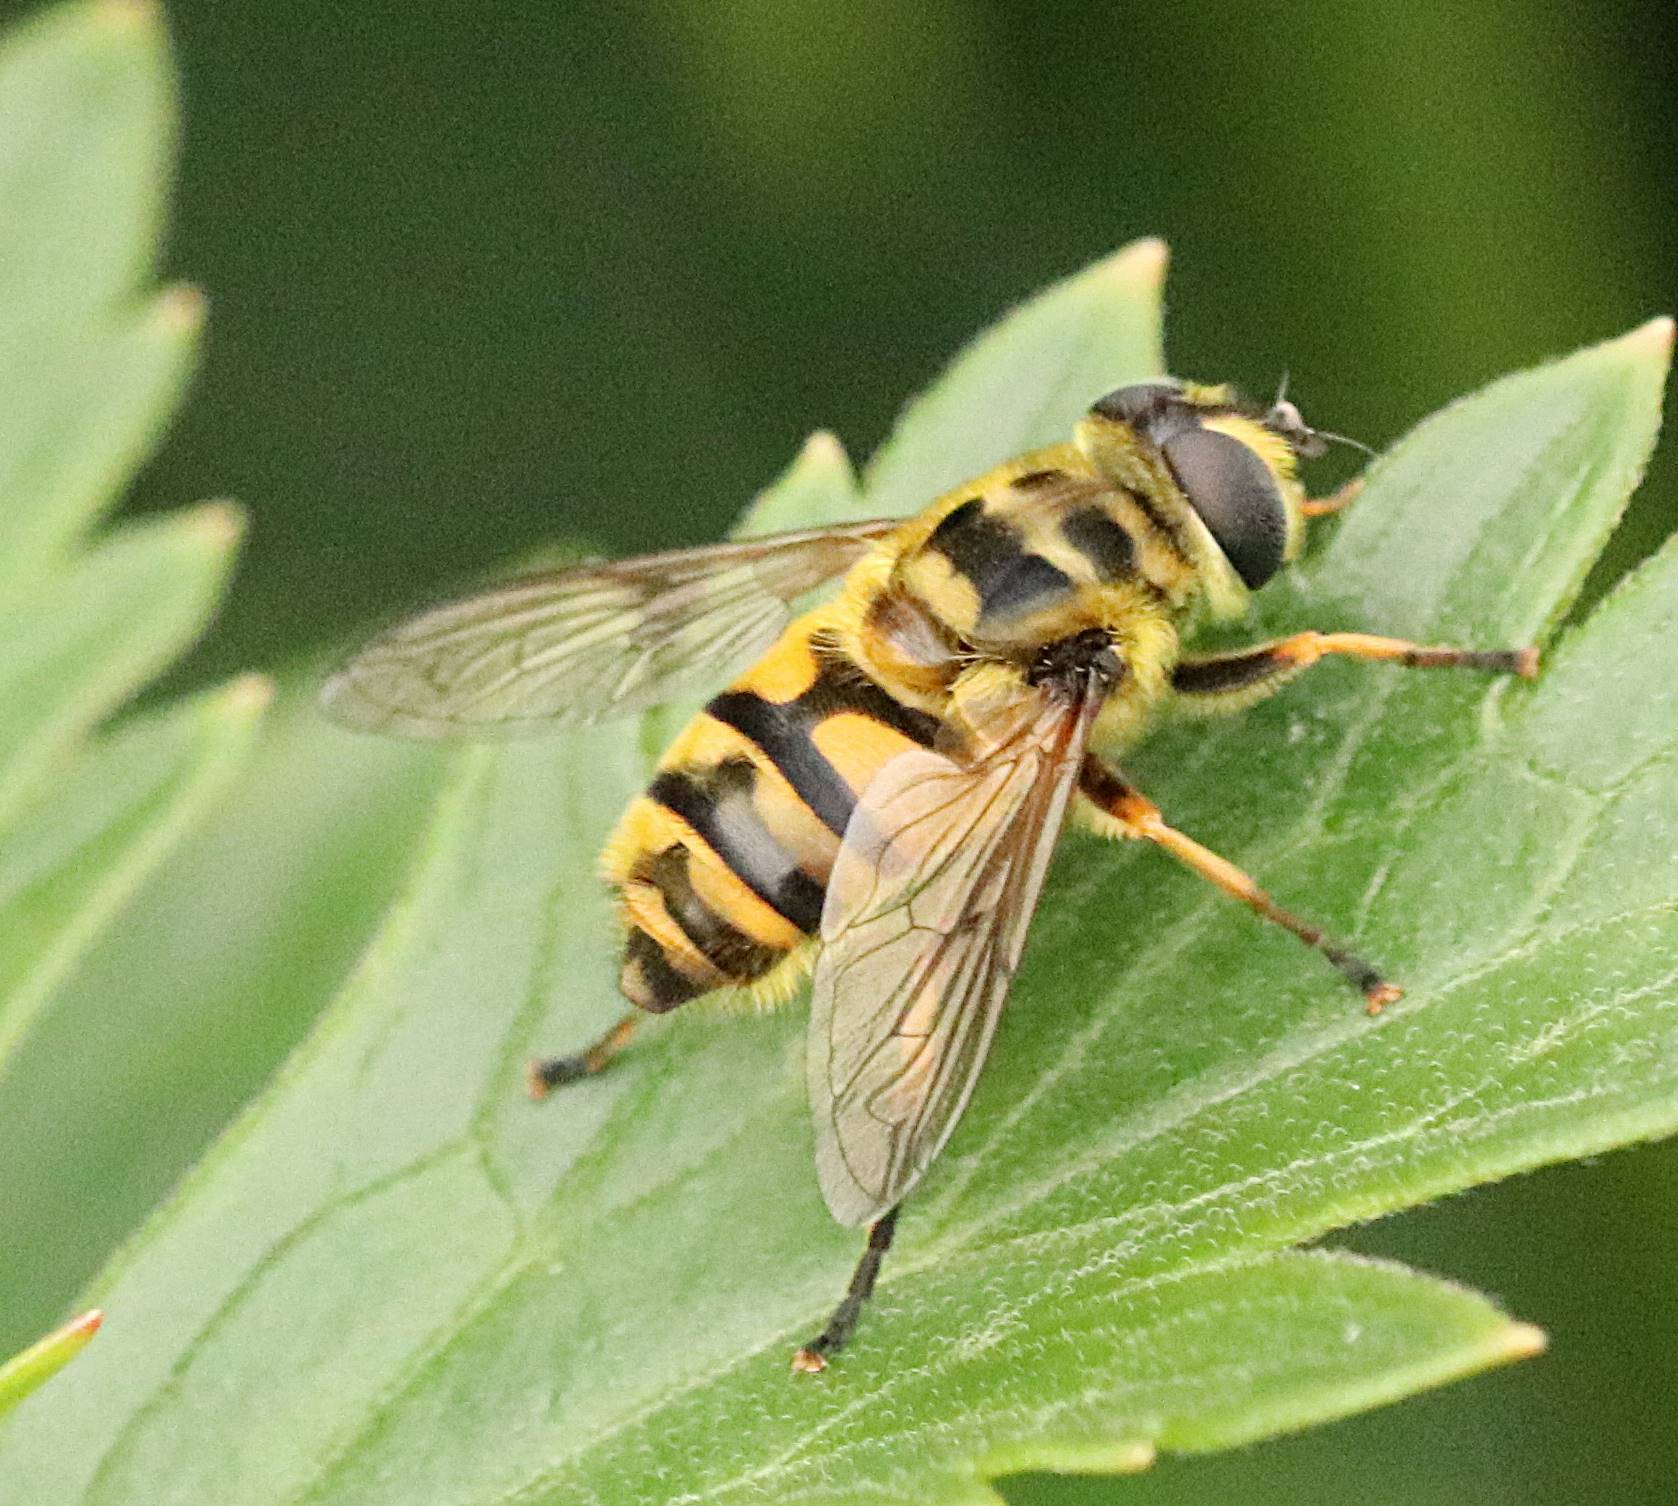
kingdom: Animalia
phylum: Arthropoda
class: Insecta
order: Diptera
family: Syrphidae
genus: Myathropa
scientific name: Myathropa florea
